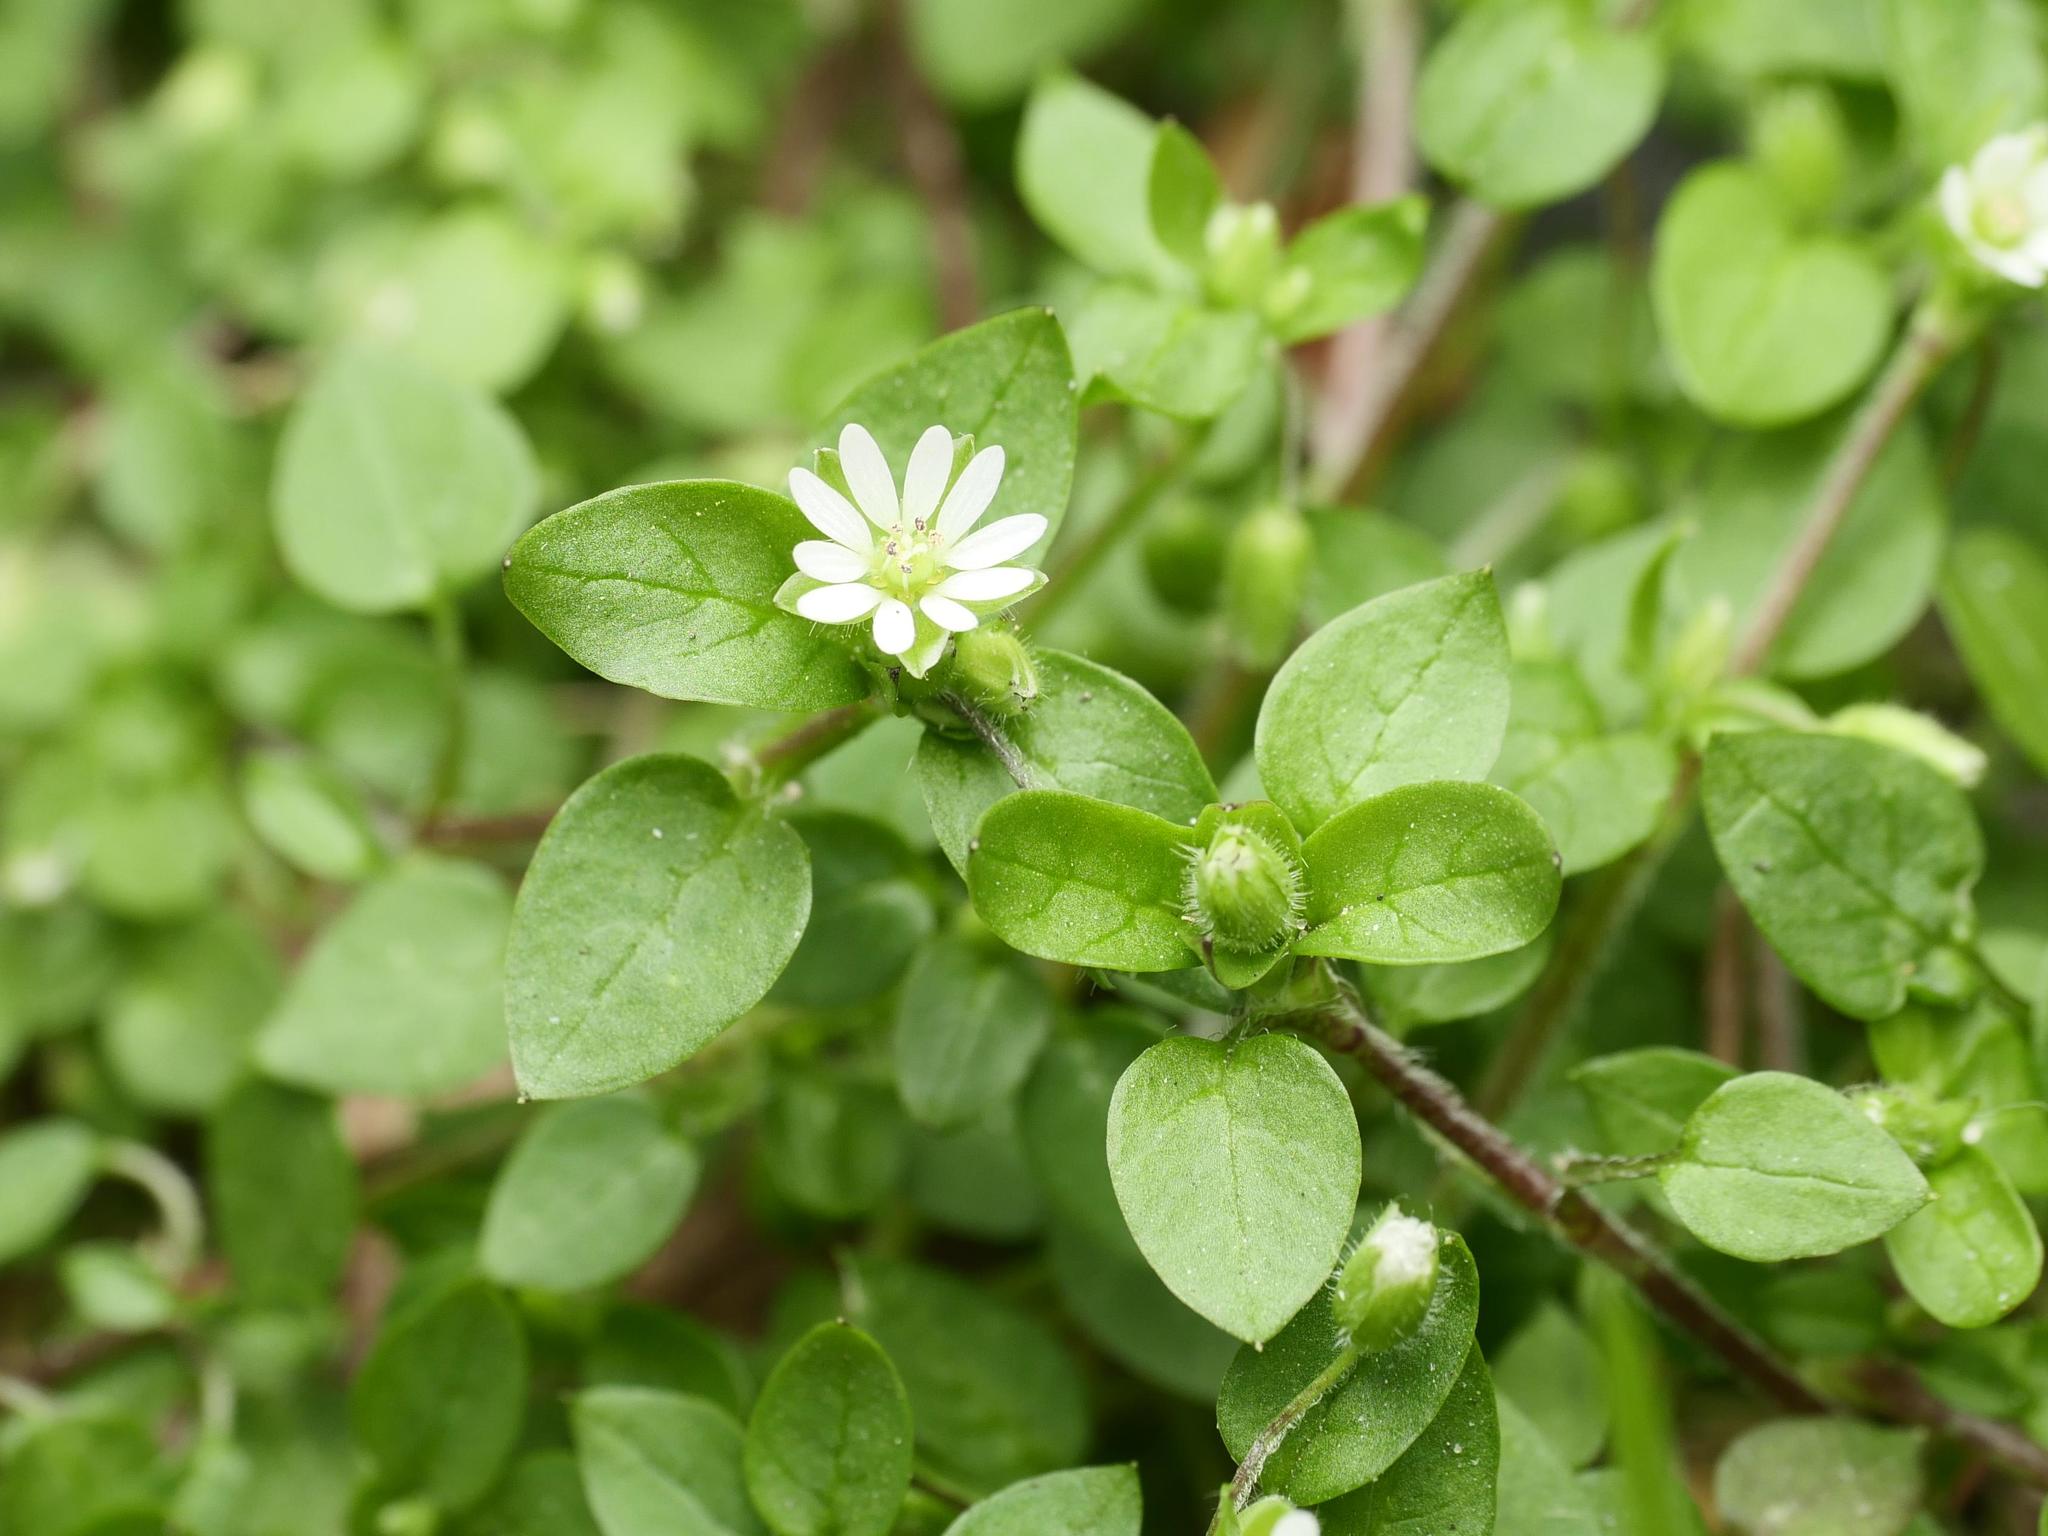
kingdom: Plantae
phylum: Tracheophyta
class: Magnoliopsida
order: Caryophyllales
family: Caryophyllaceae
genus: Stellaria
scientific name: Stellaria media
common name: Common chickweed
